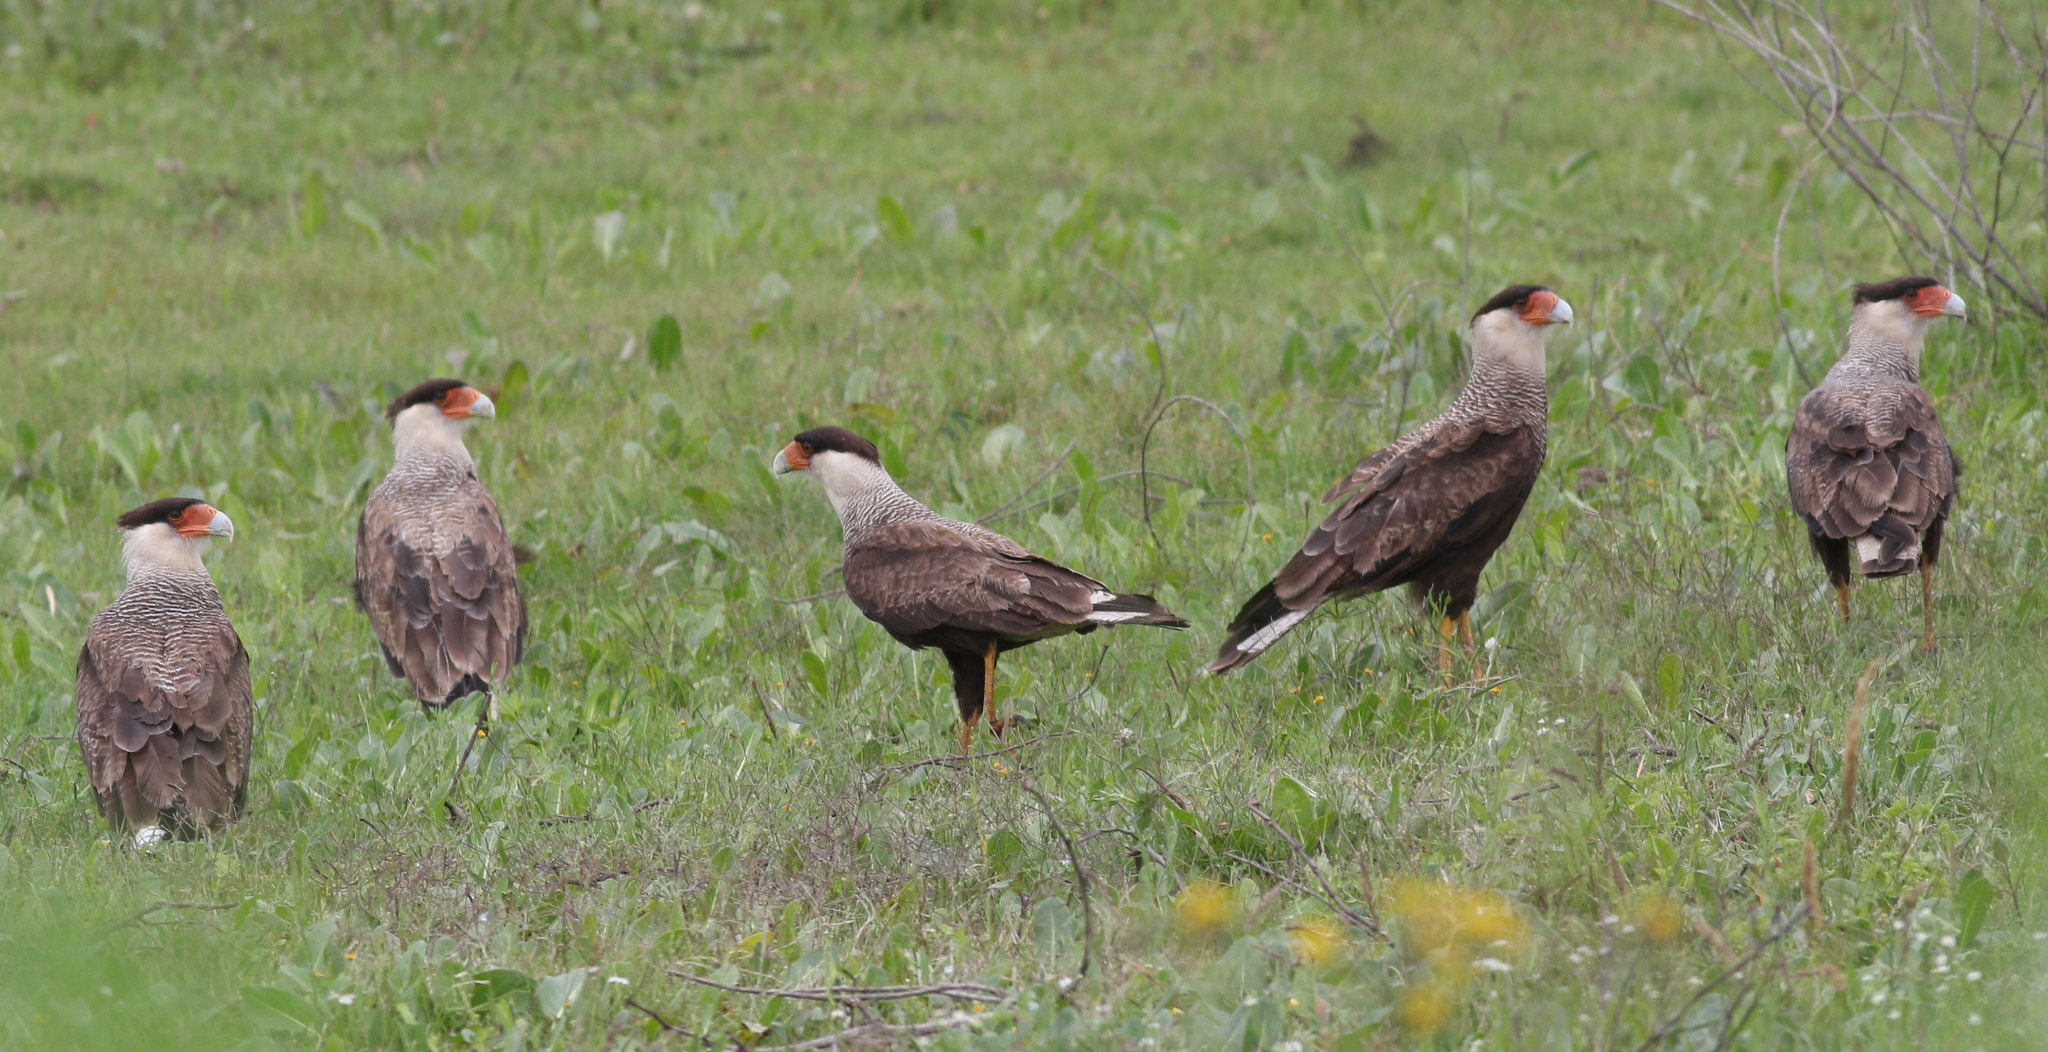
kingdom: Animalia
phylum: Chordata
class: Aves
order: Falconiformes
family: Falconidae
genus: Caracara
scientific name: Caracara plancus
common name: Southern caracara
